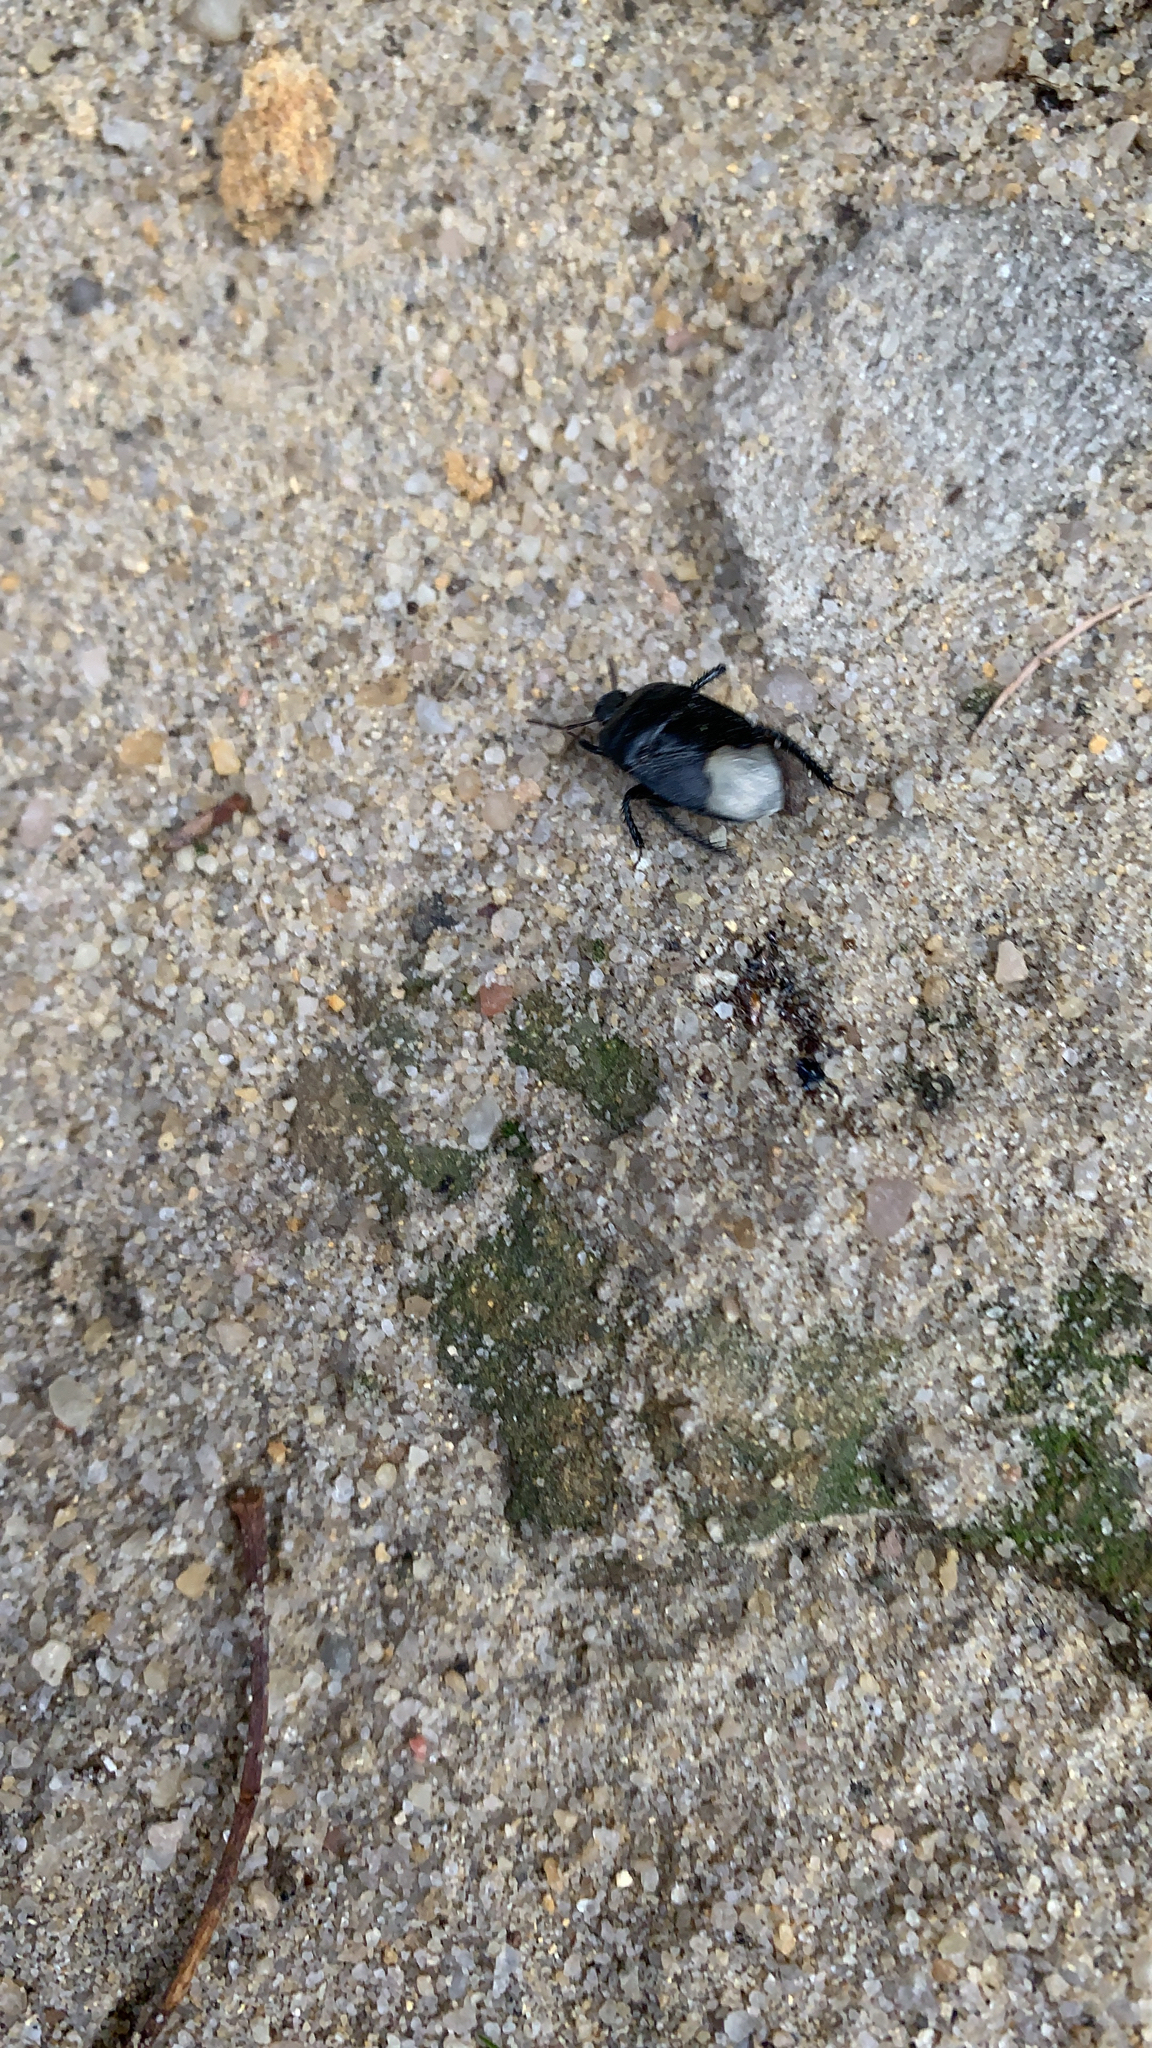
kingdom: Animalia
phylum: Arthropoda
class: Insecta
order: Hemiptera
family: Cydnidae
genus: Cydnus
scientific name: Cydnus aterrimus
